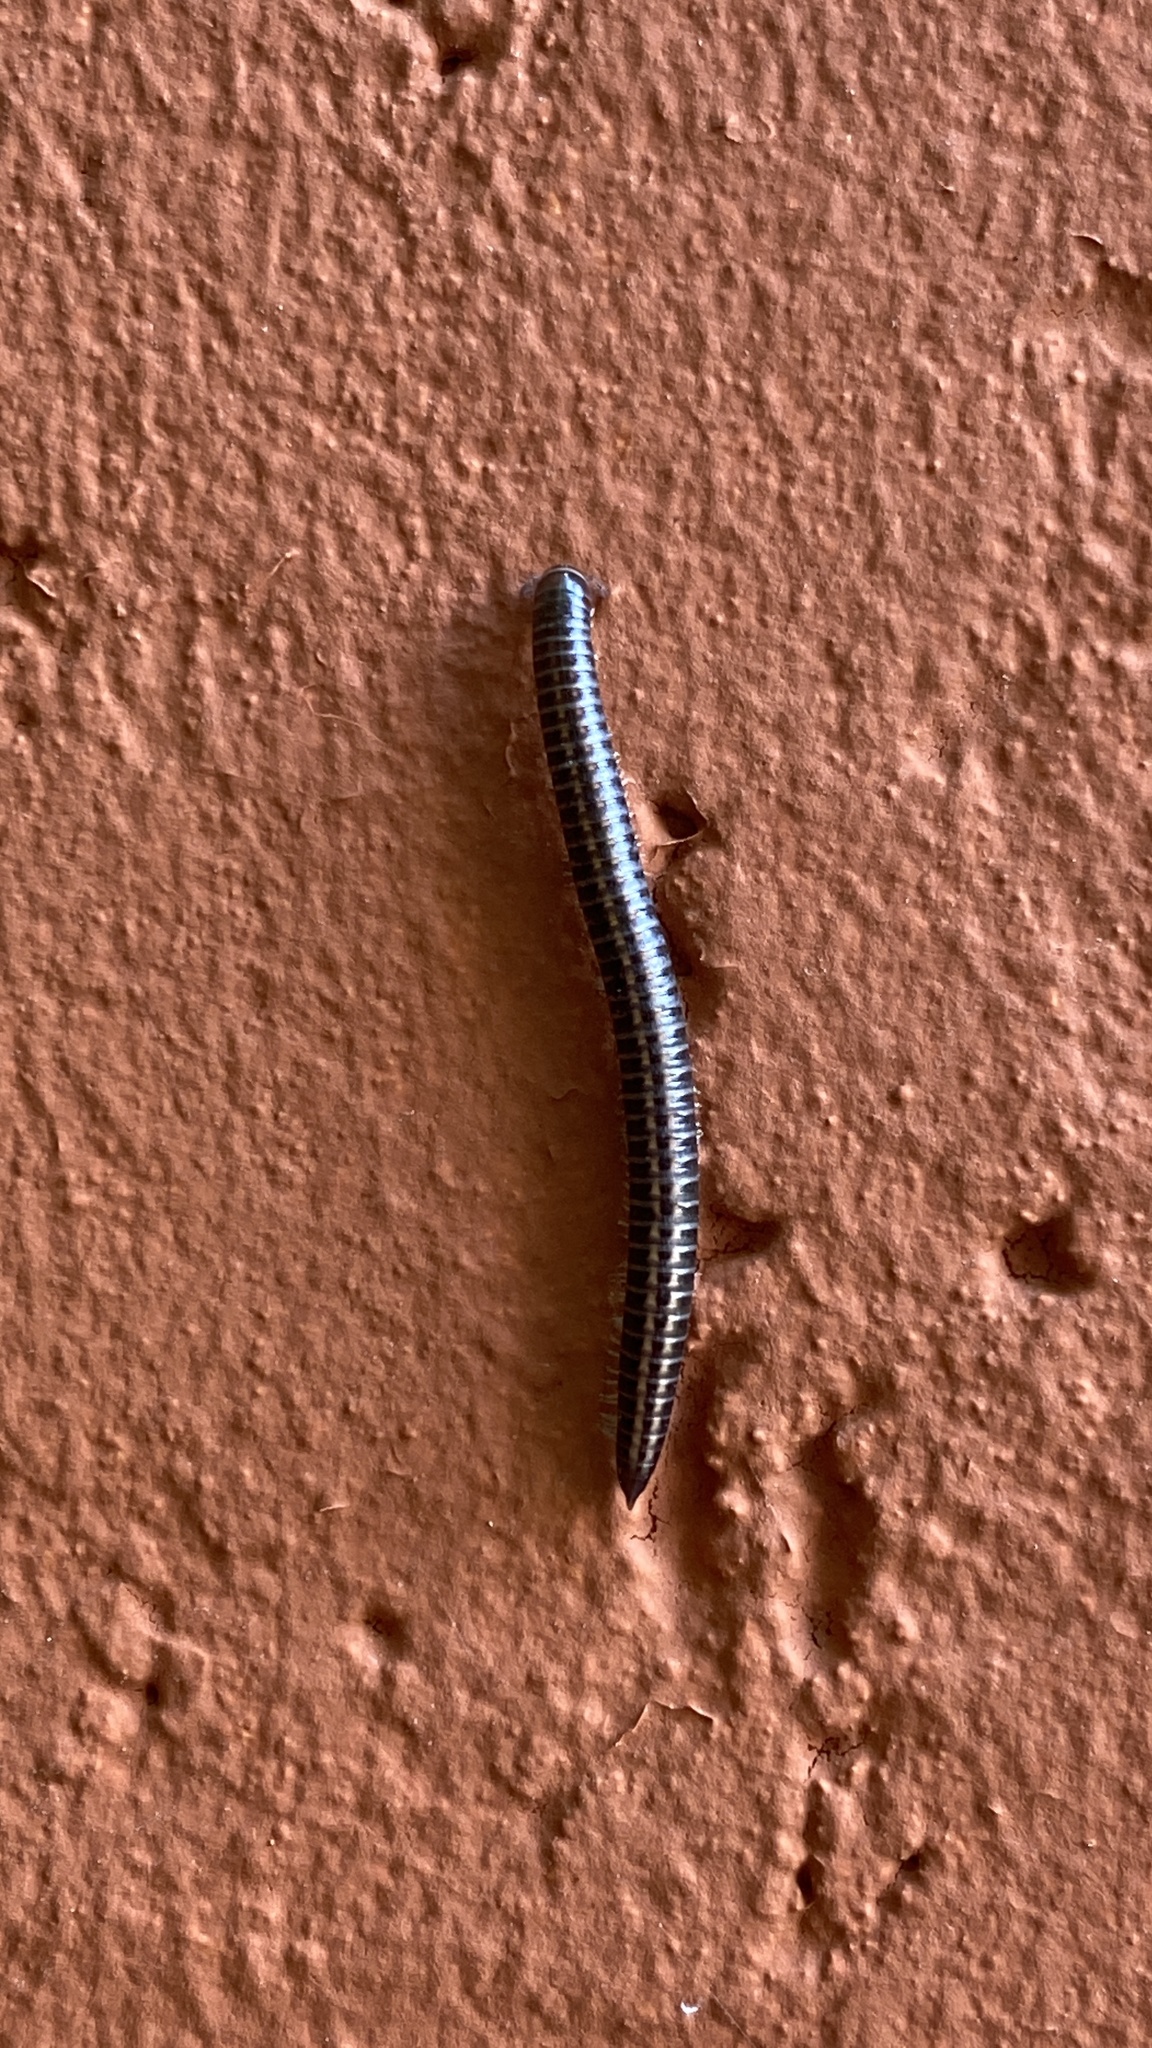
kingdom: Animalia
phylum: Arthropoda
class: Diplopoda
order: Julida
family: Julidae
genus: Rossiulus
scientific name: Rossiulus kessleri
